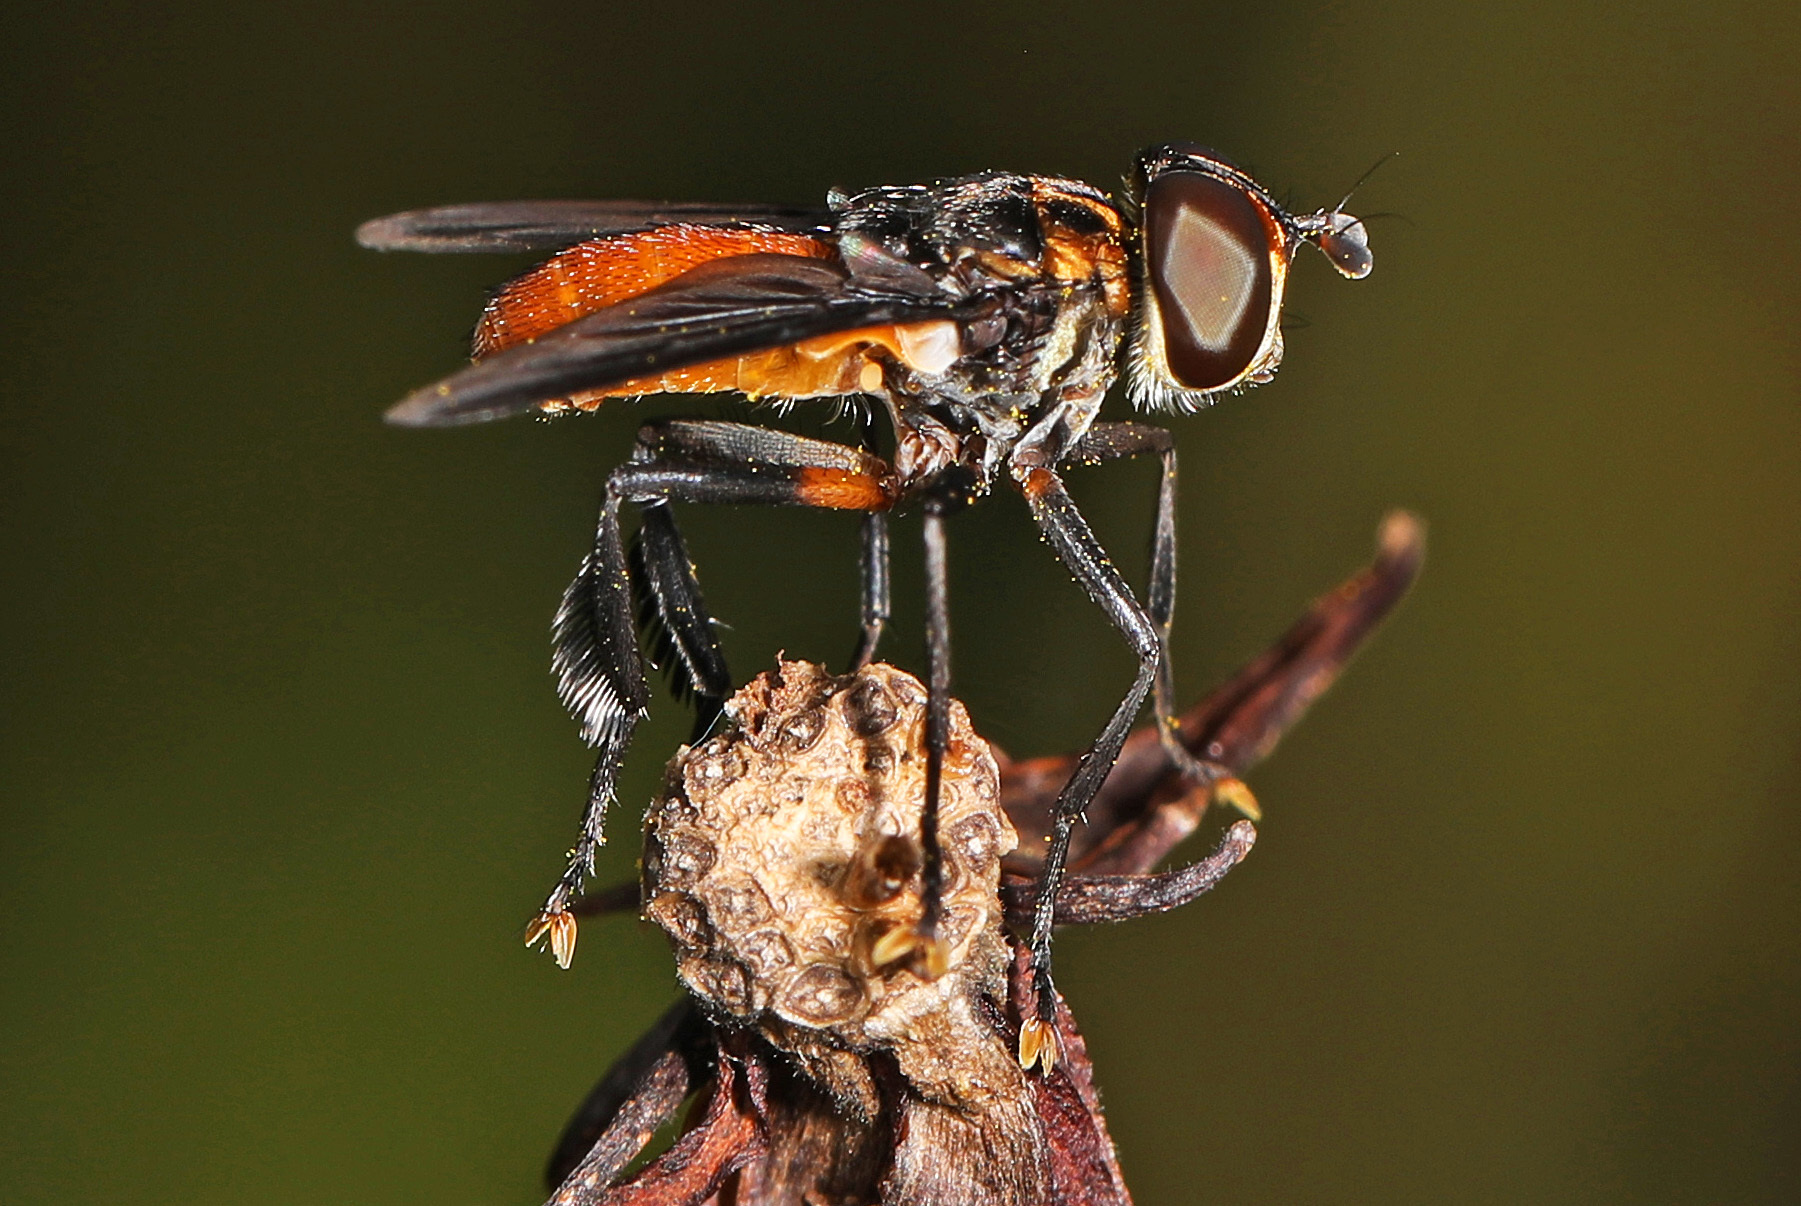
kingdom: Animalia
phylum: Arthropoda
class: Insecta
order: Diptera
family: Tachinidae
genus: Trichopoda
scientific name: Trichopoda pennipes
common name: Tachinid fly
